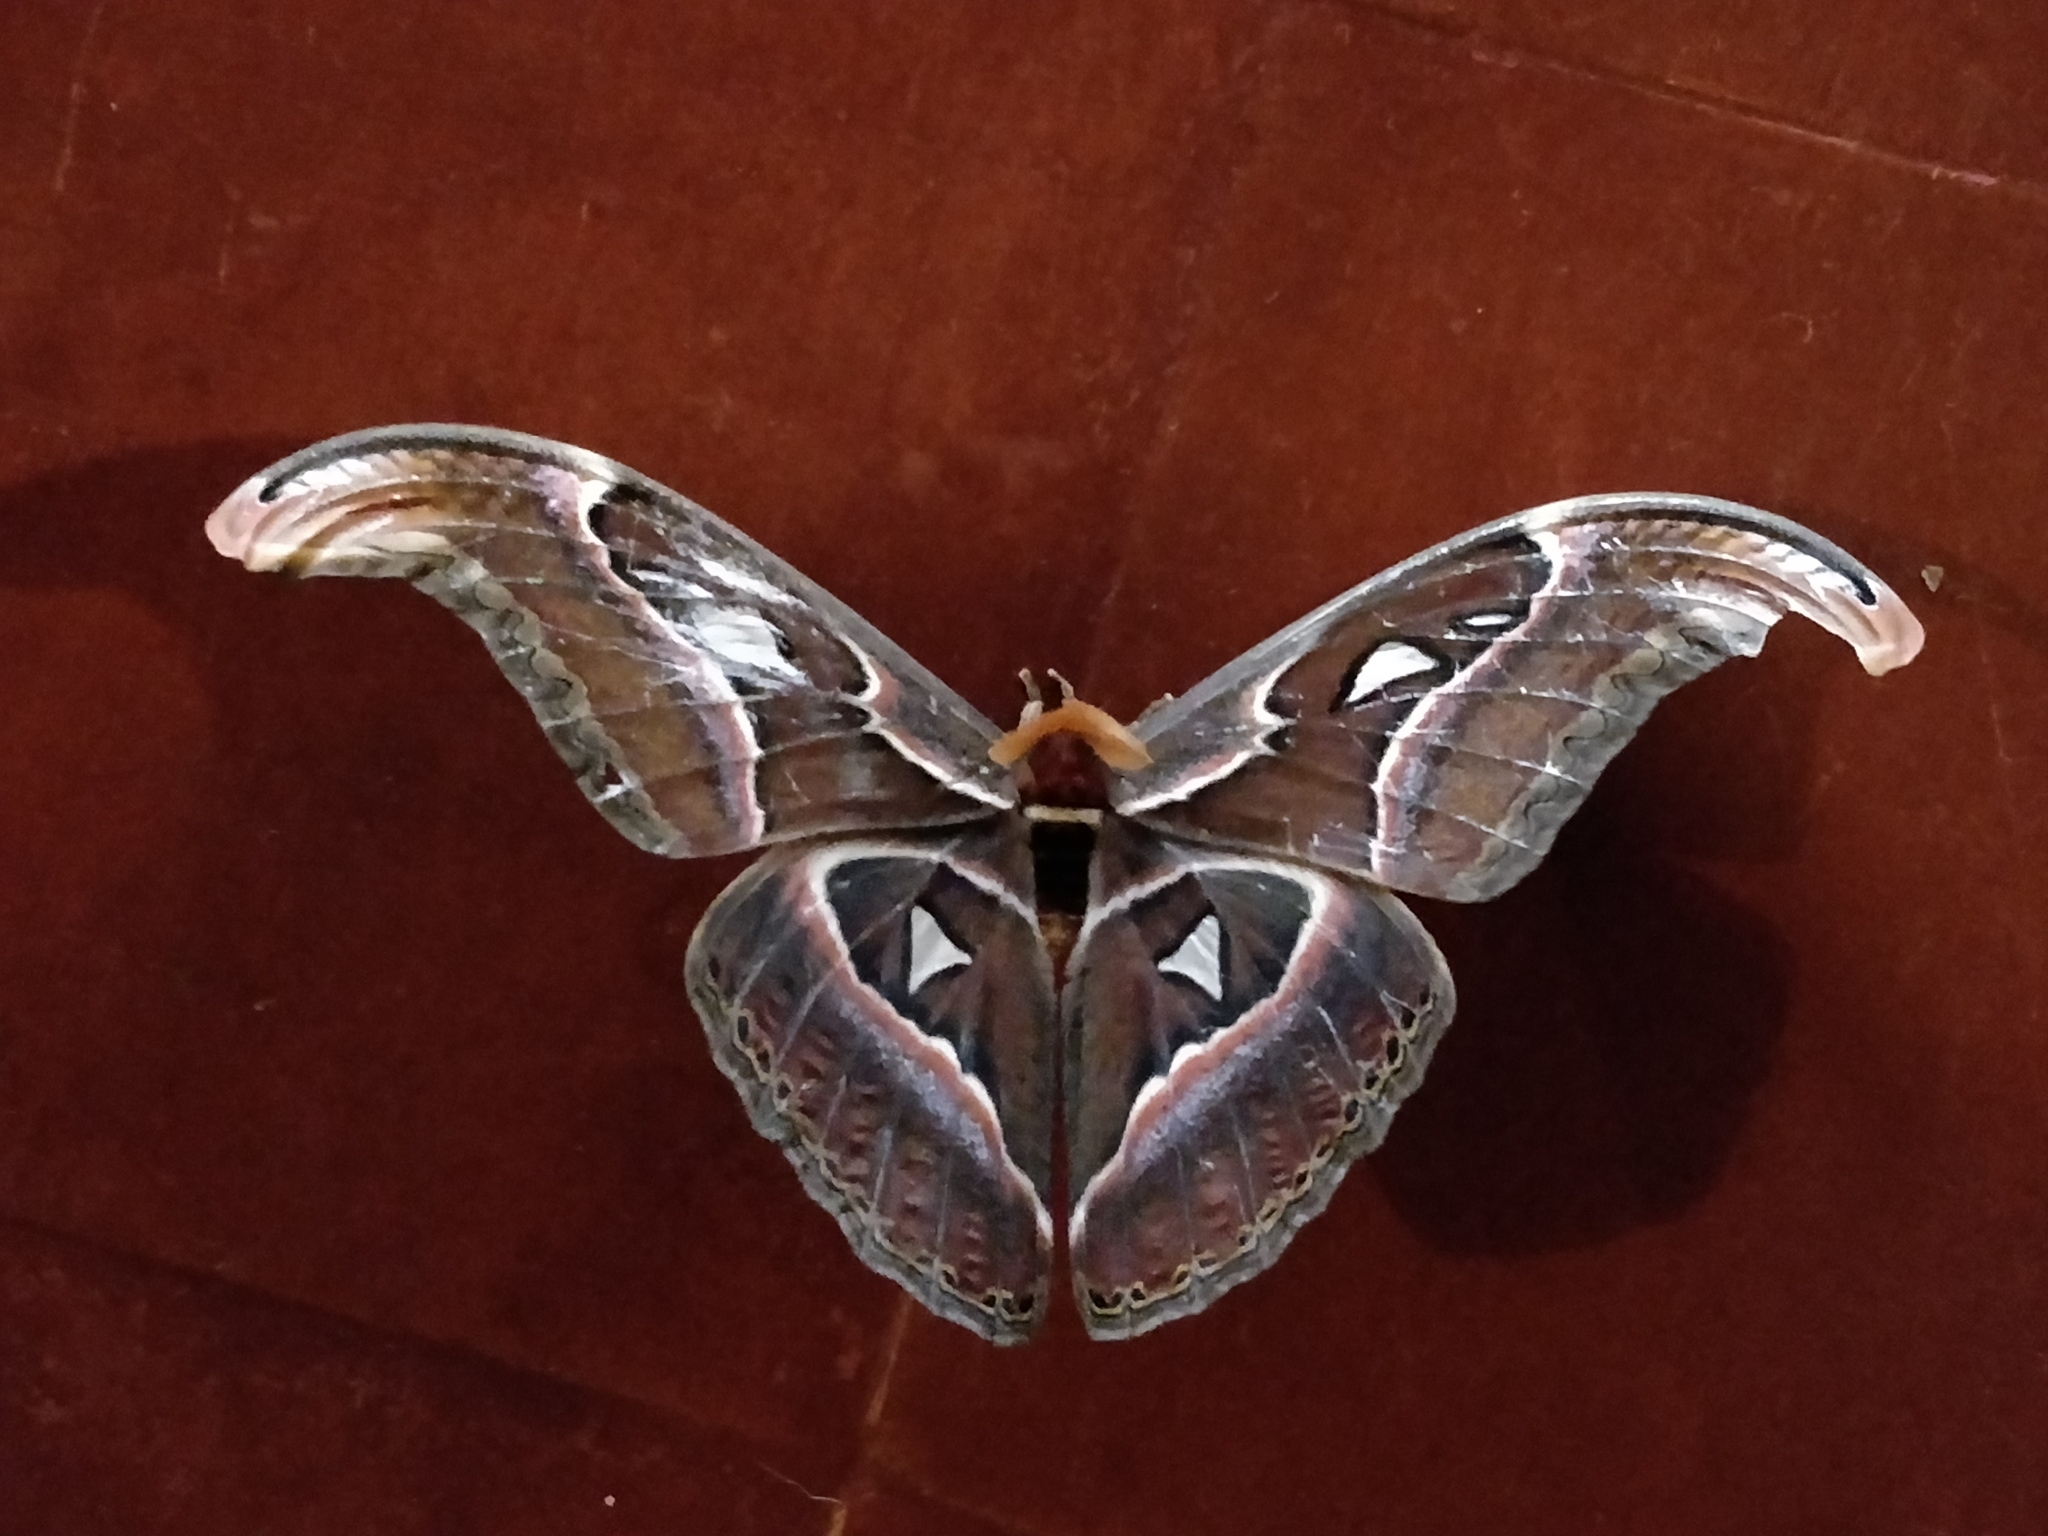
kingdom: Animalia
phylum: Arthropoda
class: Insecta
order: Lepidoptera
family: Saturniidae
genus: Attacus
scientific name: Attacus taprobanis
